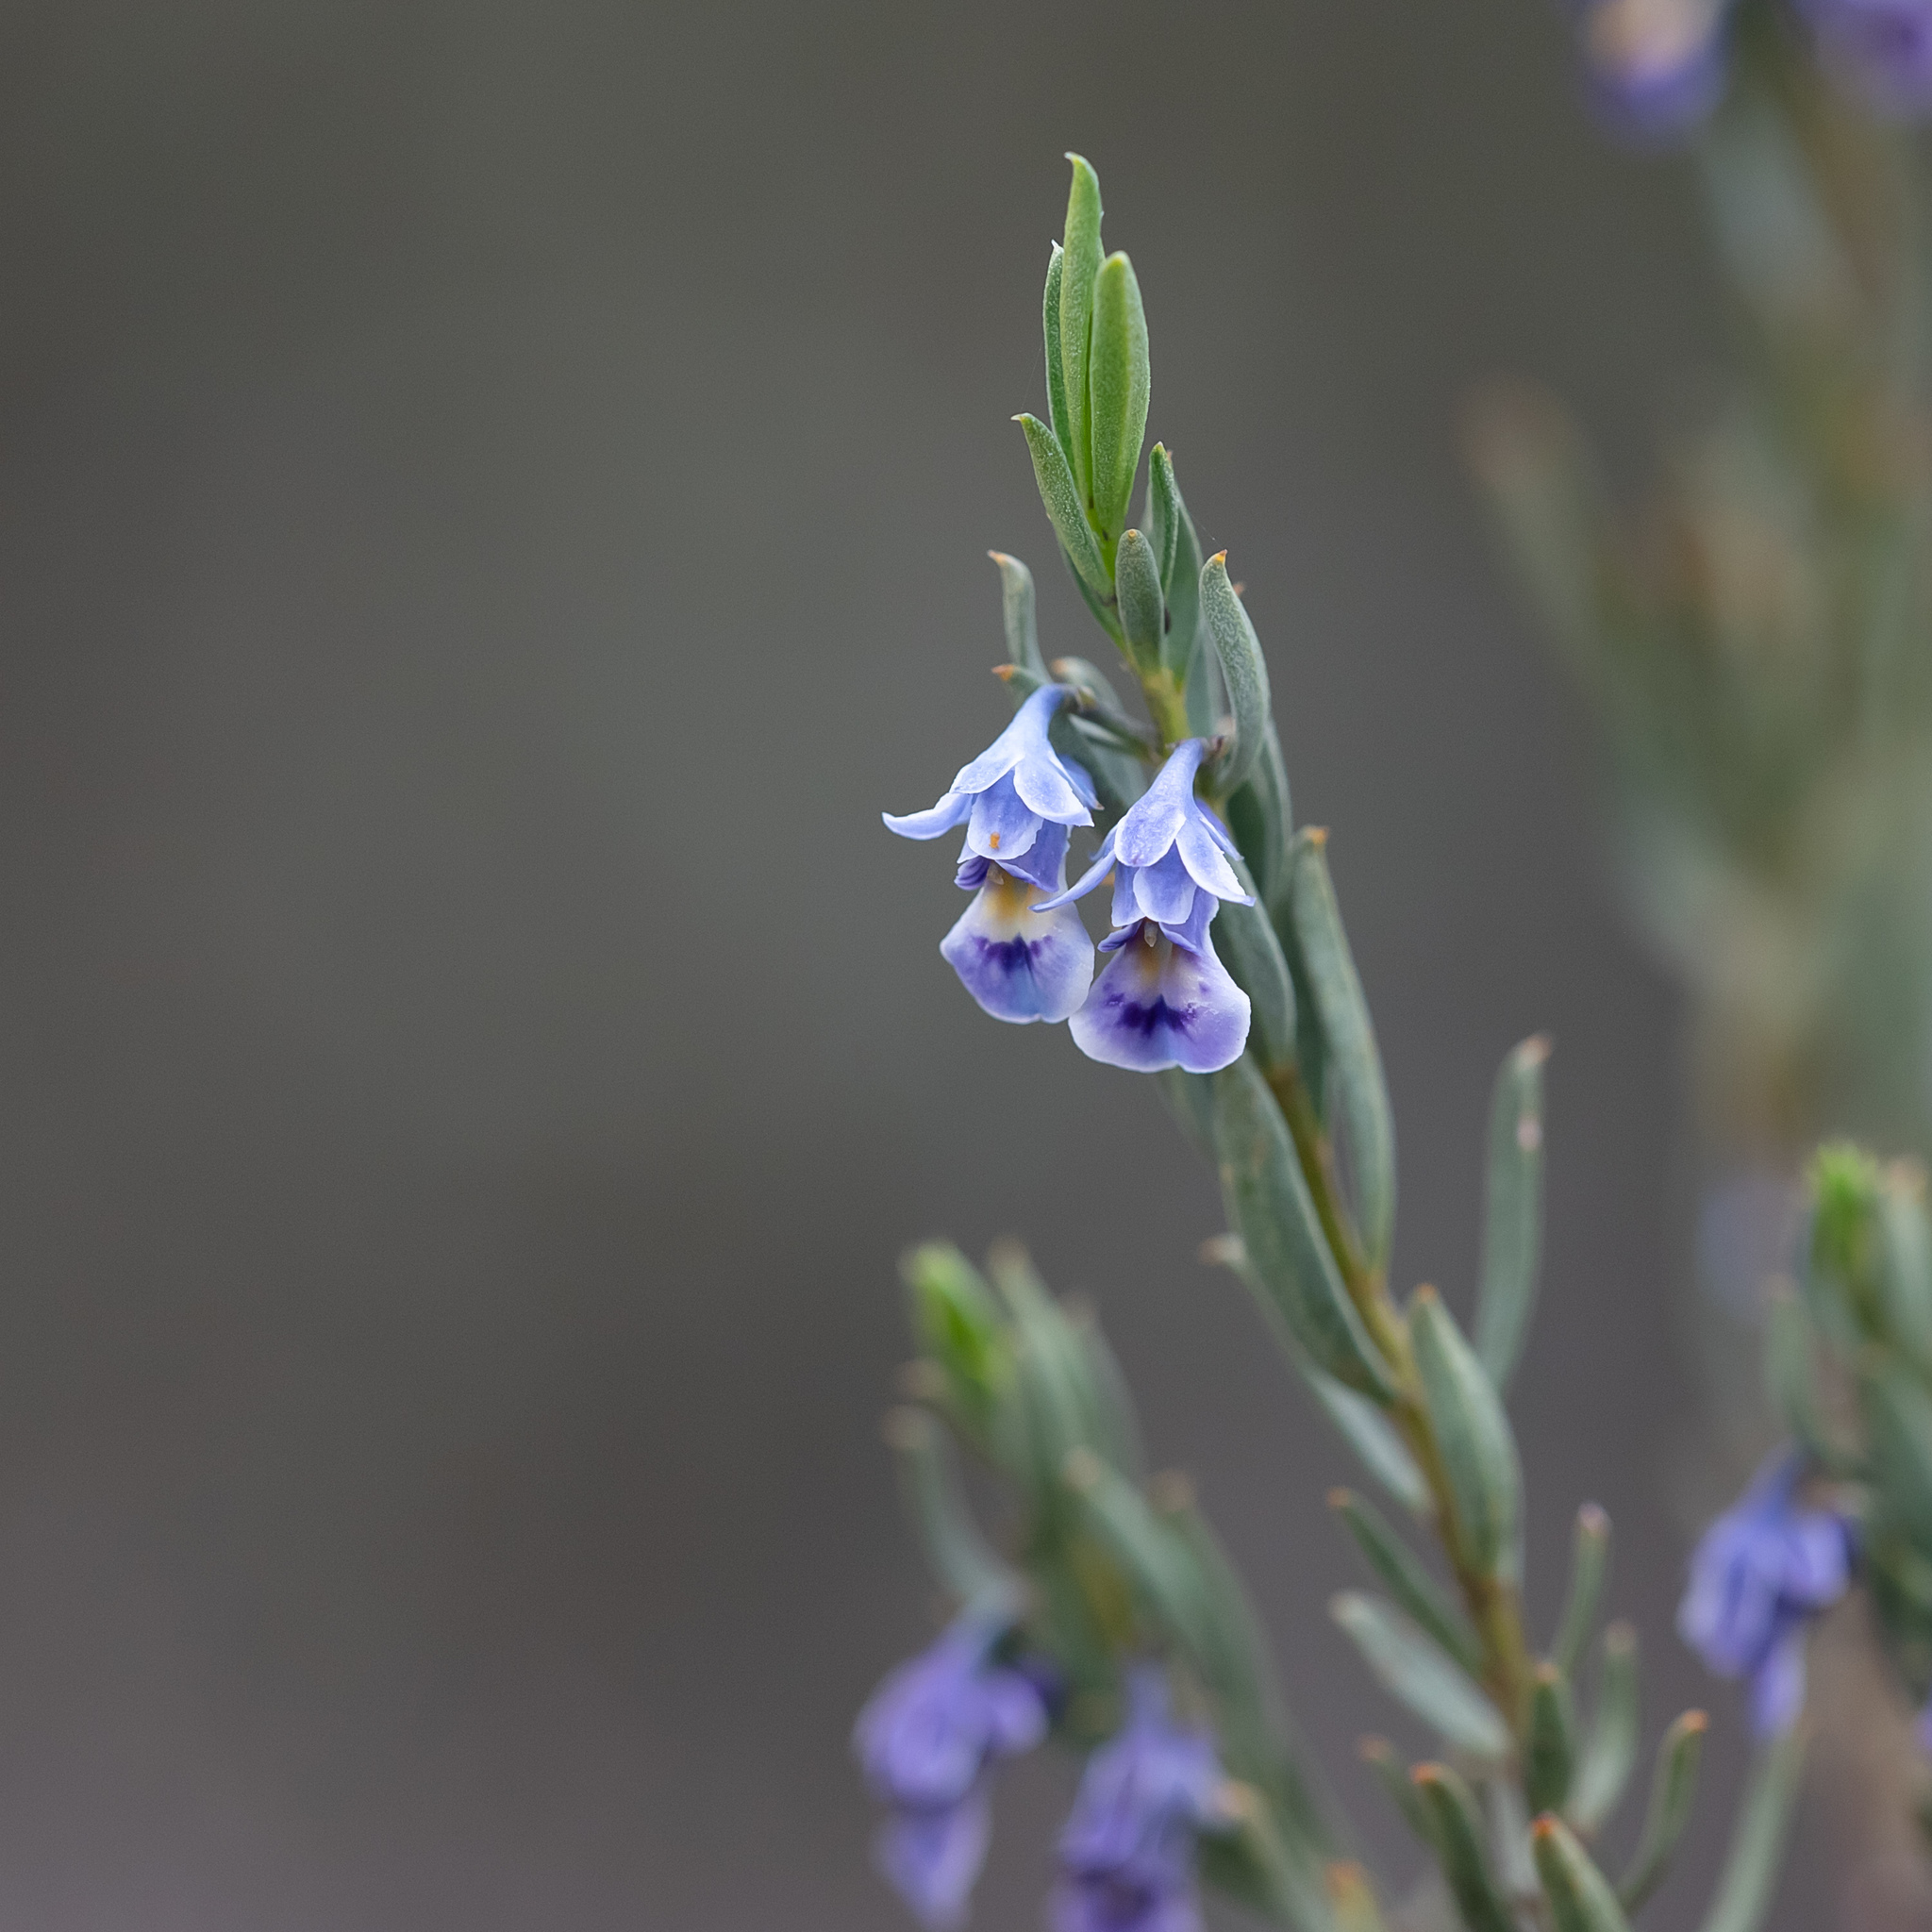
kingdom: Plantae
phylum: Tracheophyta
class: Magnoliopsida
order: Malpighiales
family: Violaceae
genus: Pigea
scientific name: Pigea floribunda
